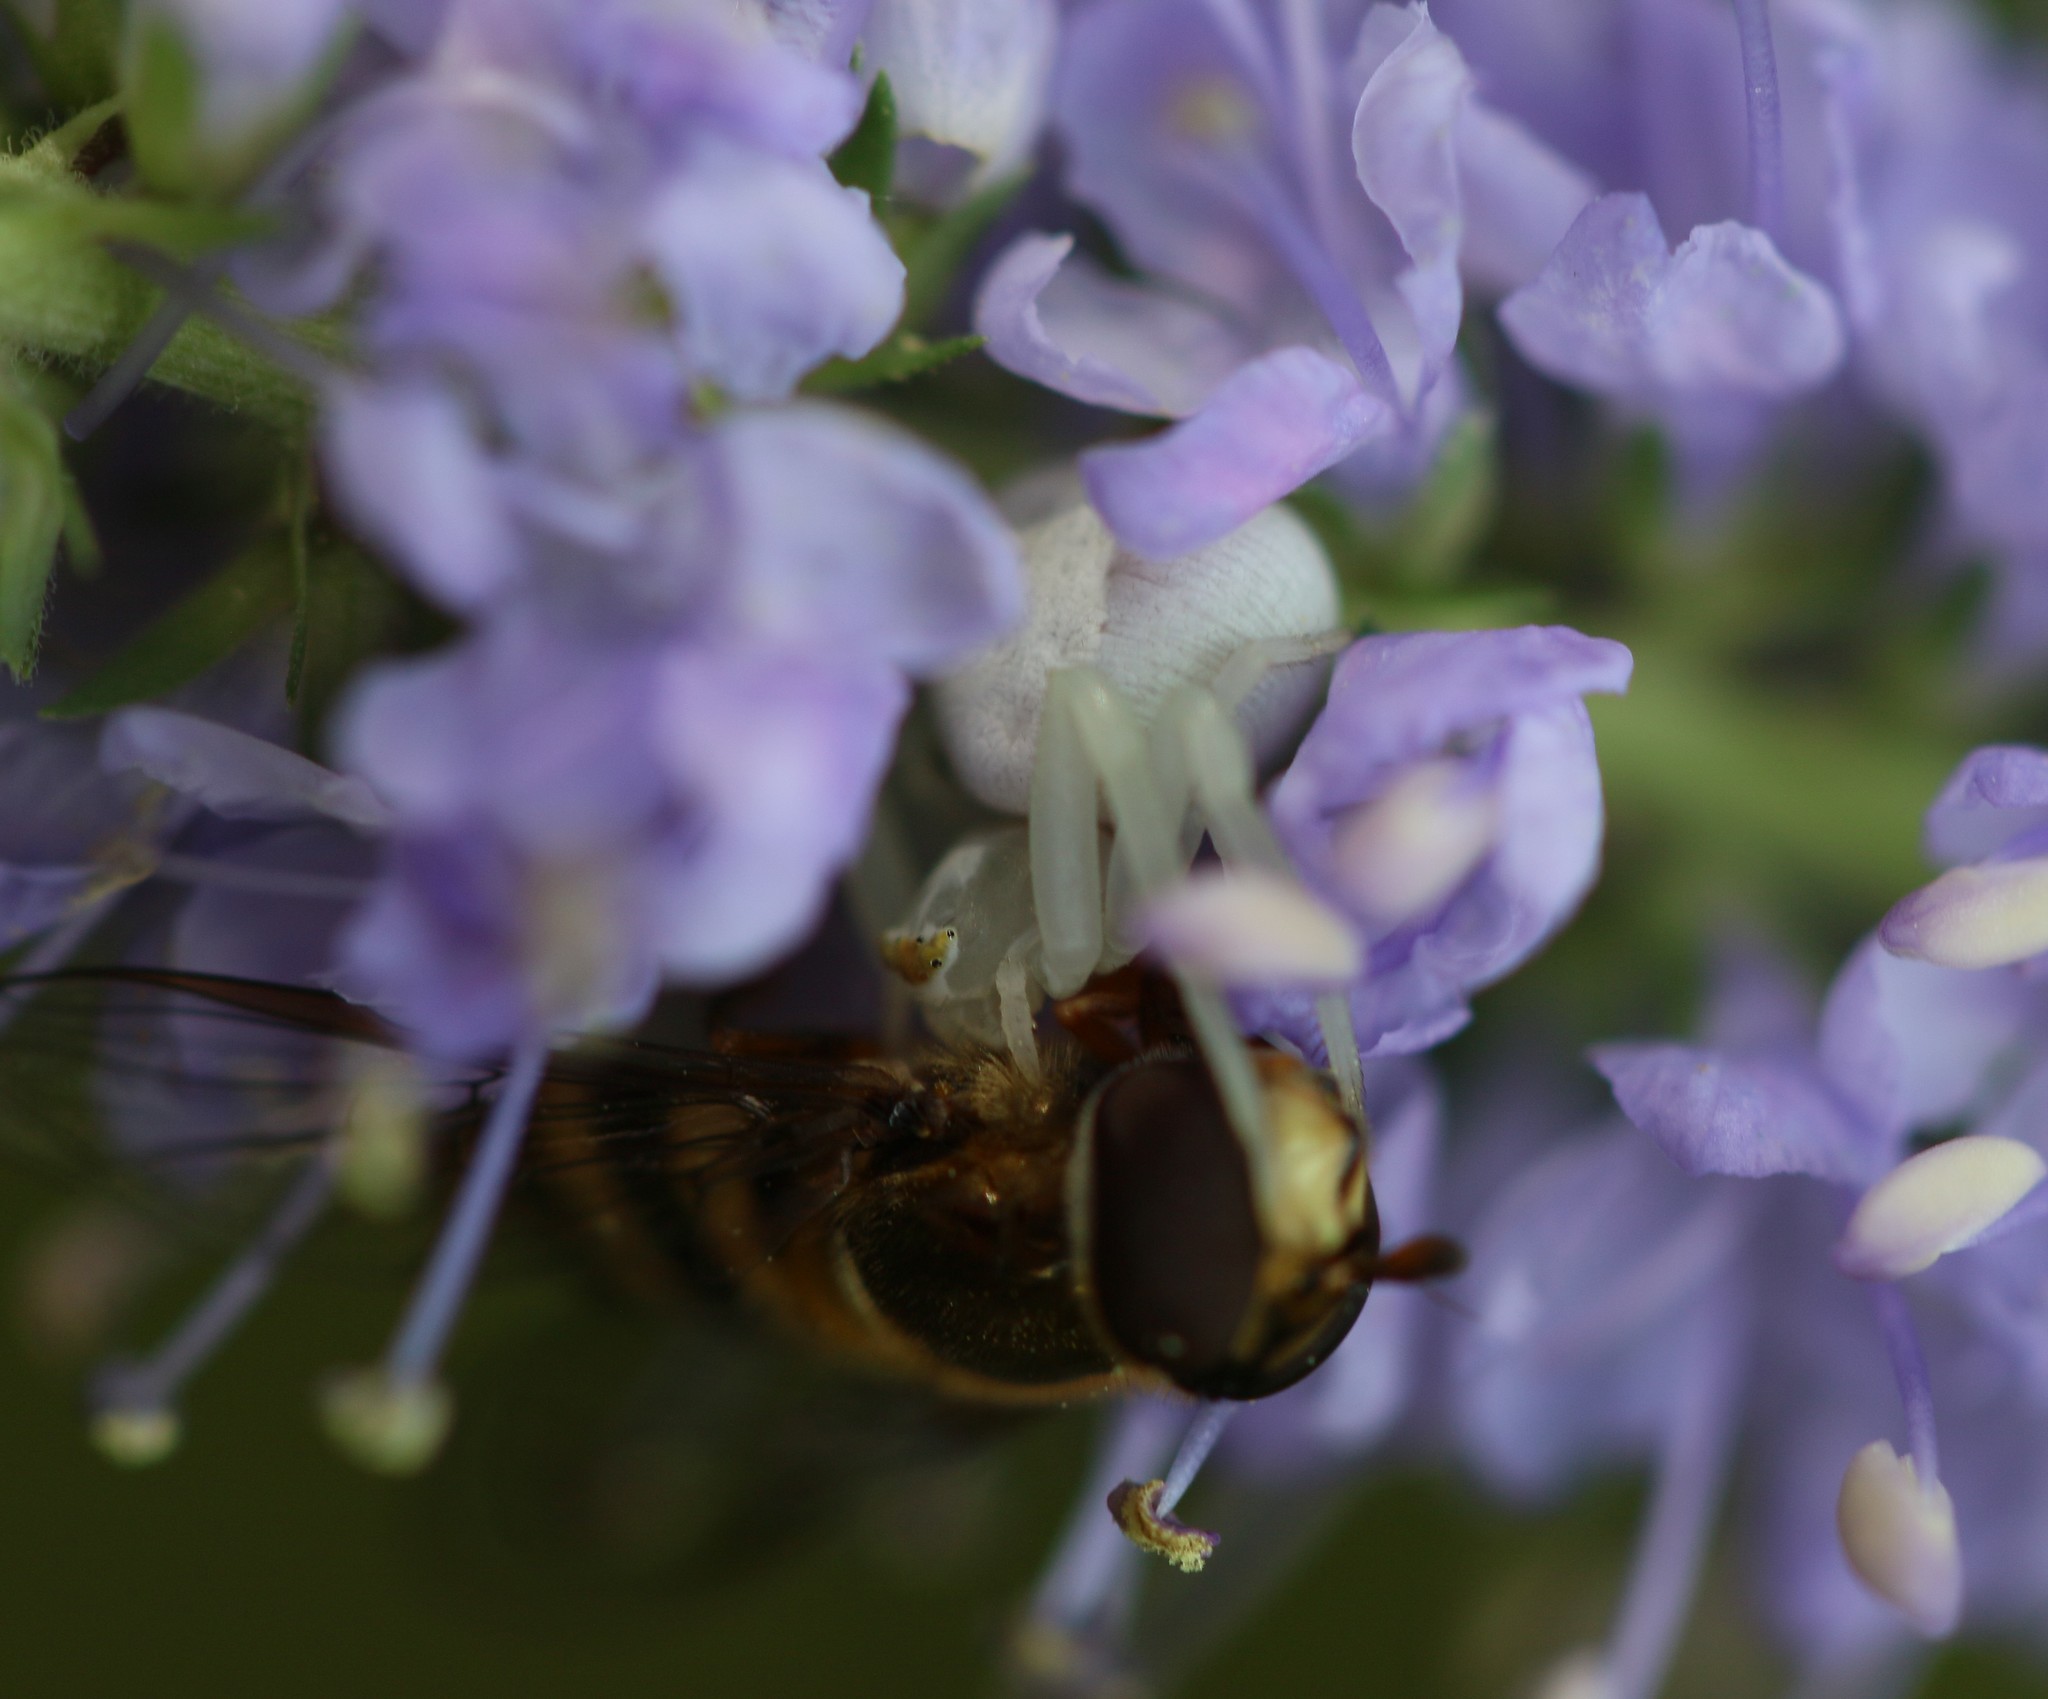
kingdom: Animalia
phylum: Arthropoda
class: Arachnida
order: Araneae
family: Thomisidae
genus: Misumena
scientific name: Misumena vatia
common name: Goldenrod crab spider
